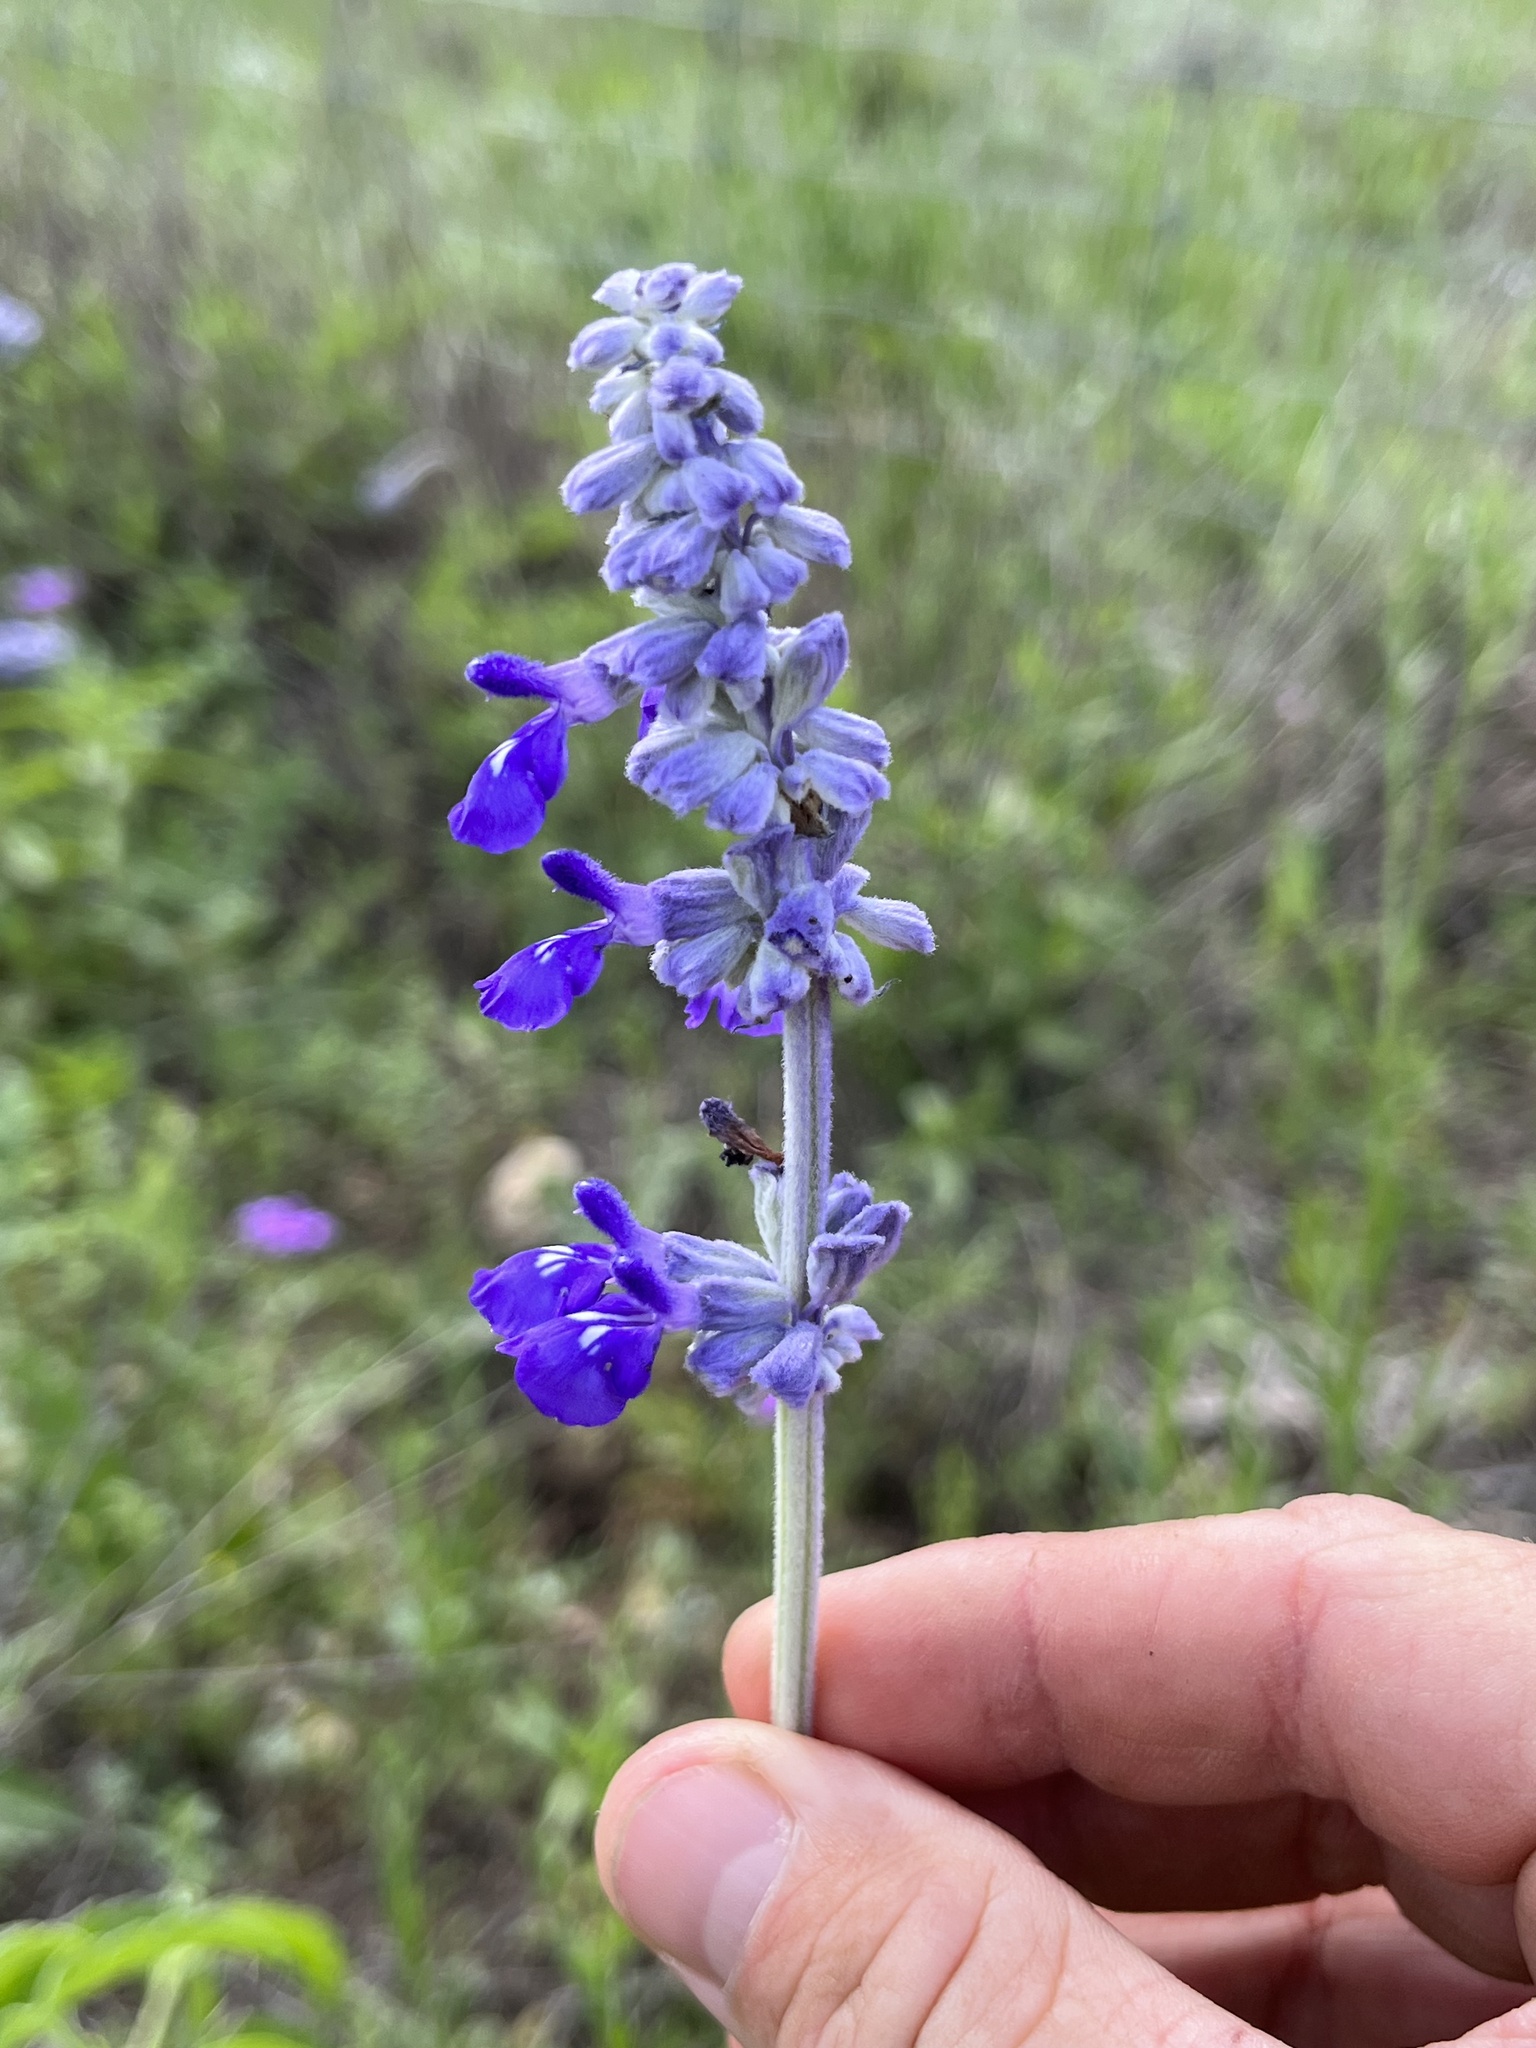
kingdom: Plantae
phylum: Tracheophyta
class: Magnoliopsida
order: Lamiales
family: Lamiaceae
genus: Salvia
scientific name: Salvia farinacea
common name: Mealy sage
